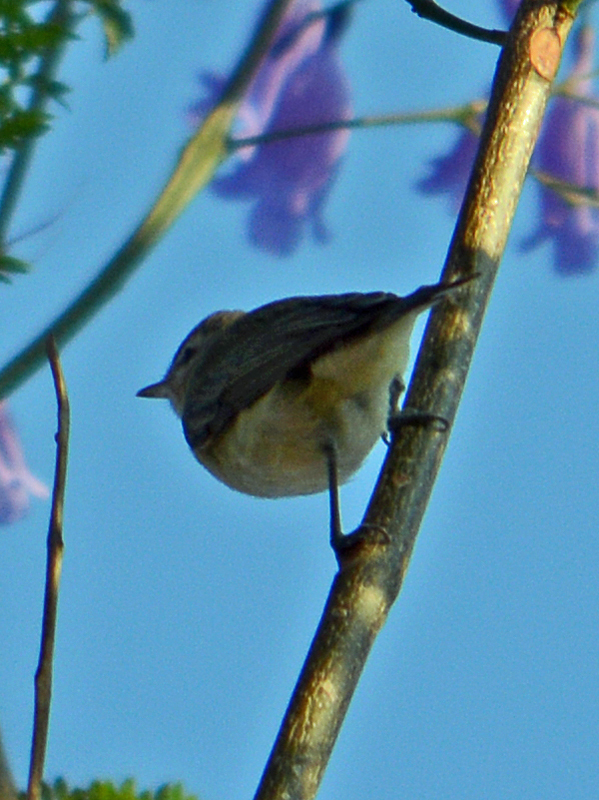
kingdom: Animalia
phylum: Chordata
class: Aves
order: Passeriformes
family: Vireonidae
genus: Vireo
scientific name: Vireo gilvus
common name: Warbling vireo
